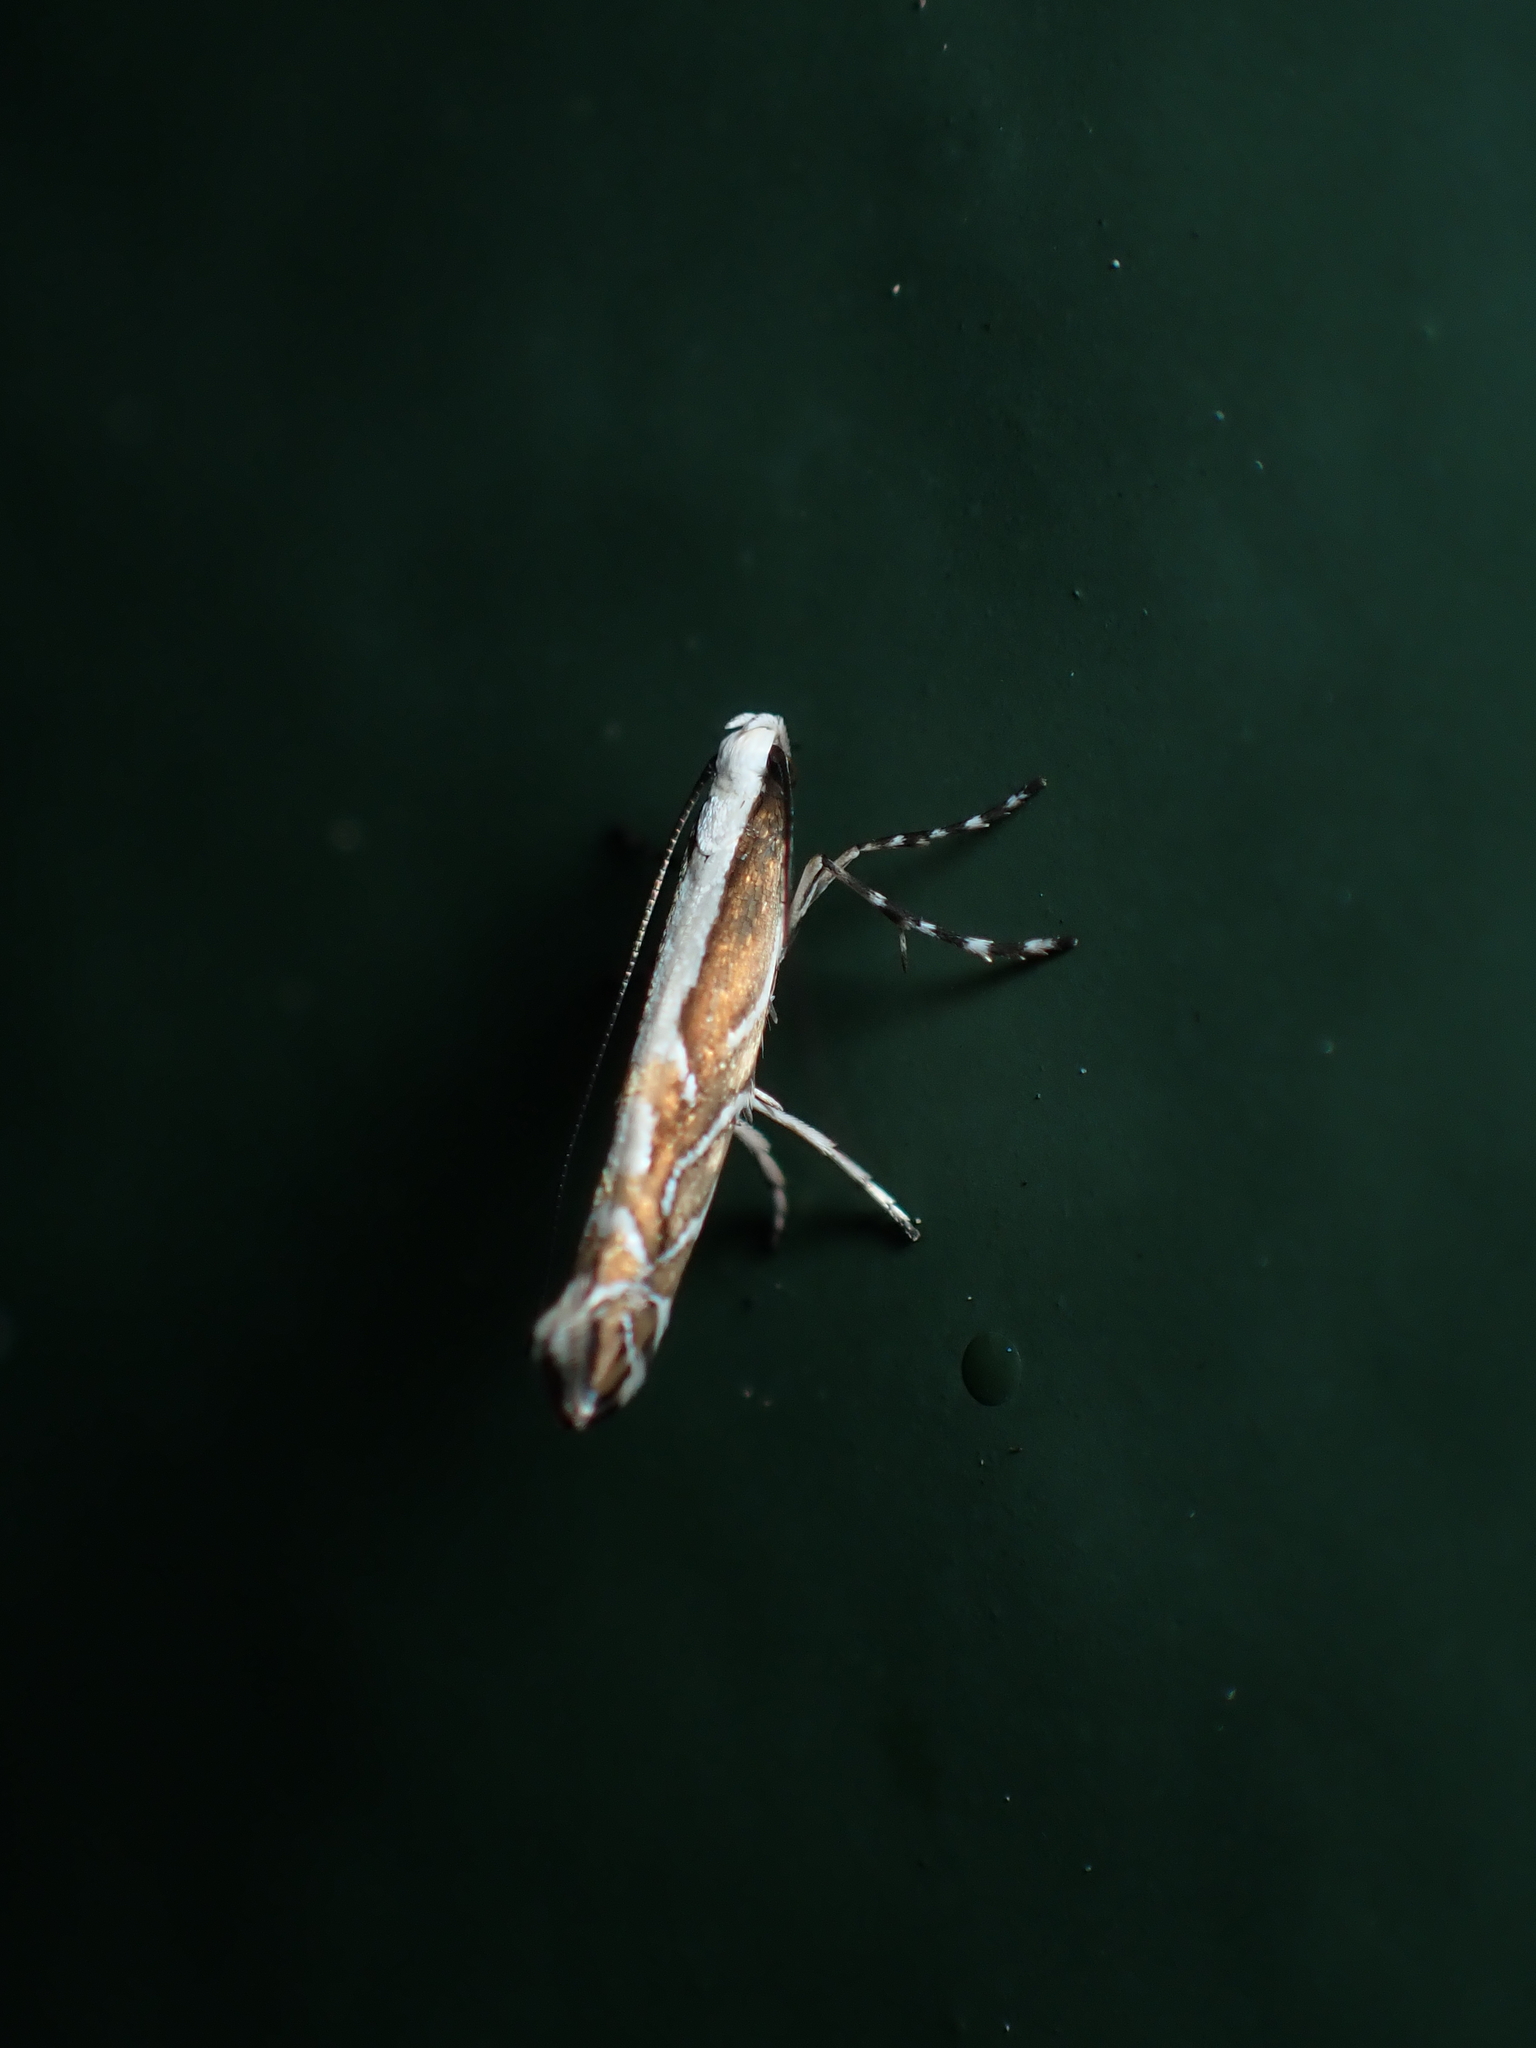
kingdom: Animalia
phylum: Arthropoda
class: Insecta
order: Lepidoptera
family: Gracillariidae
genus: Parectopa
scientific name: Parectopa alysidota
